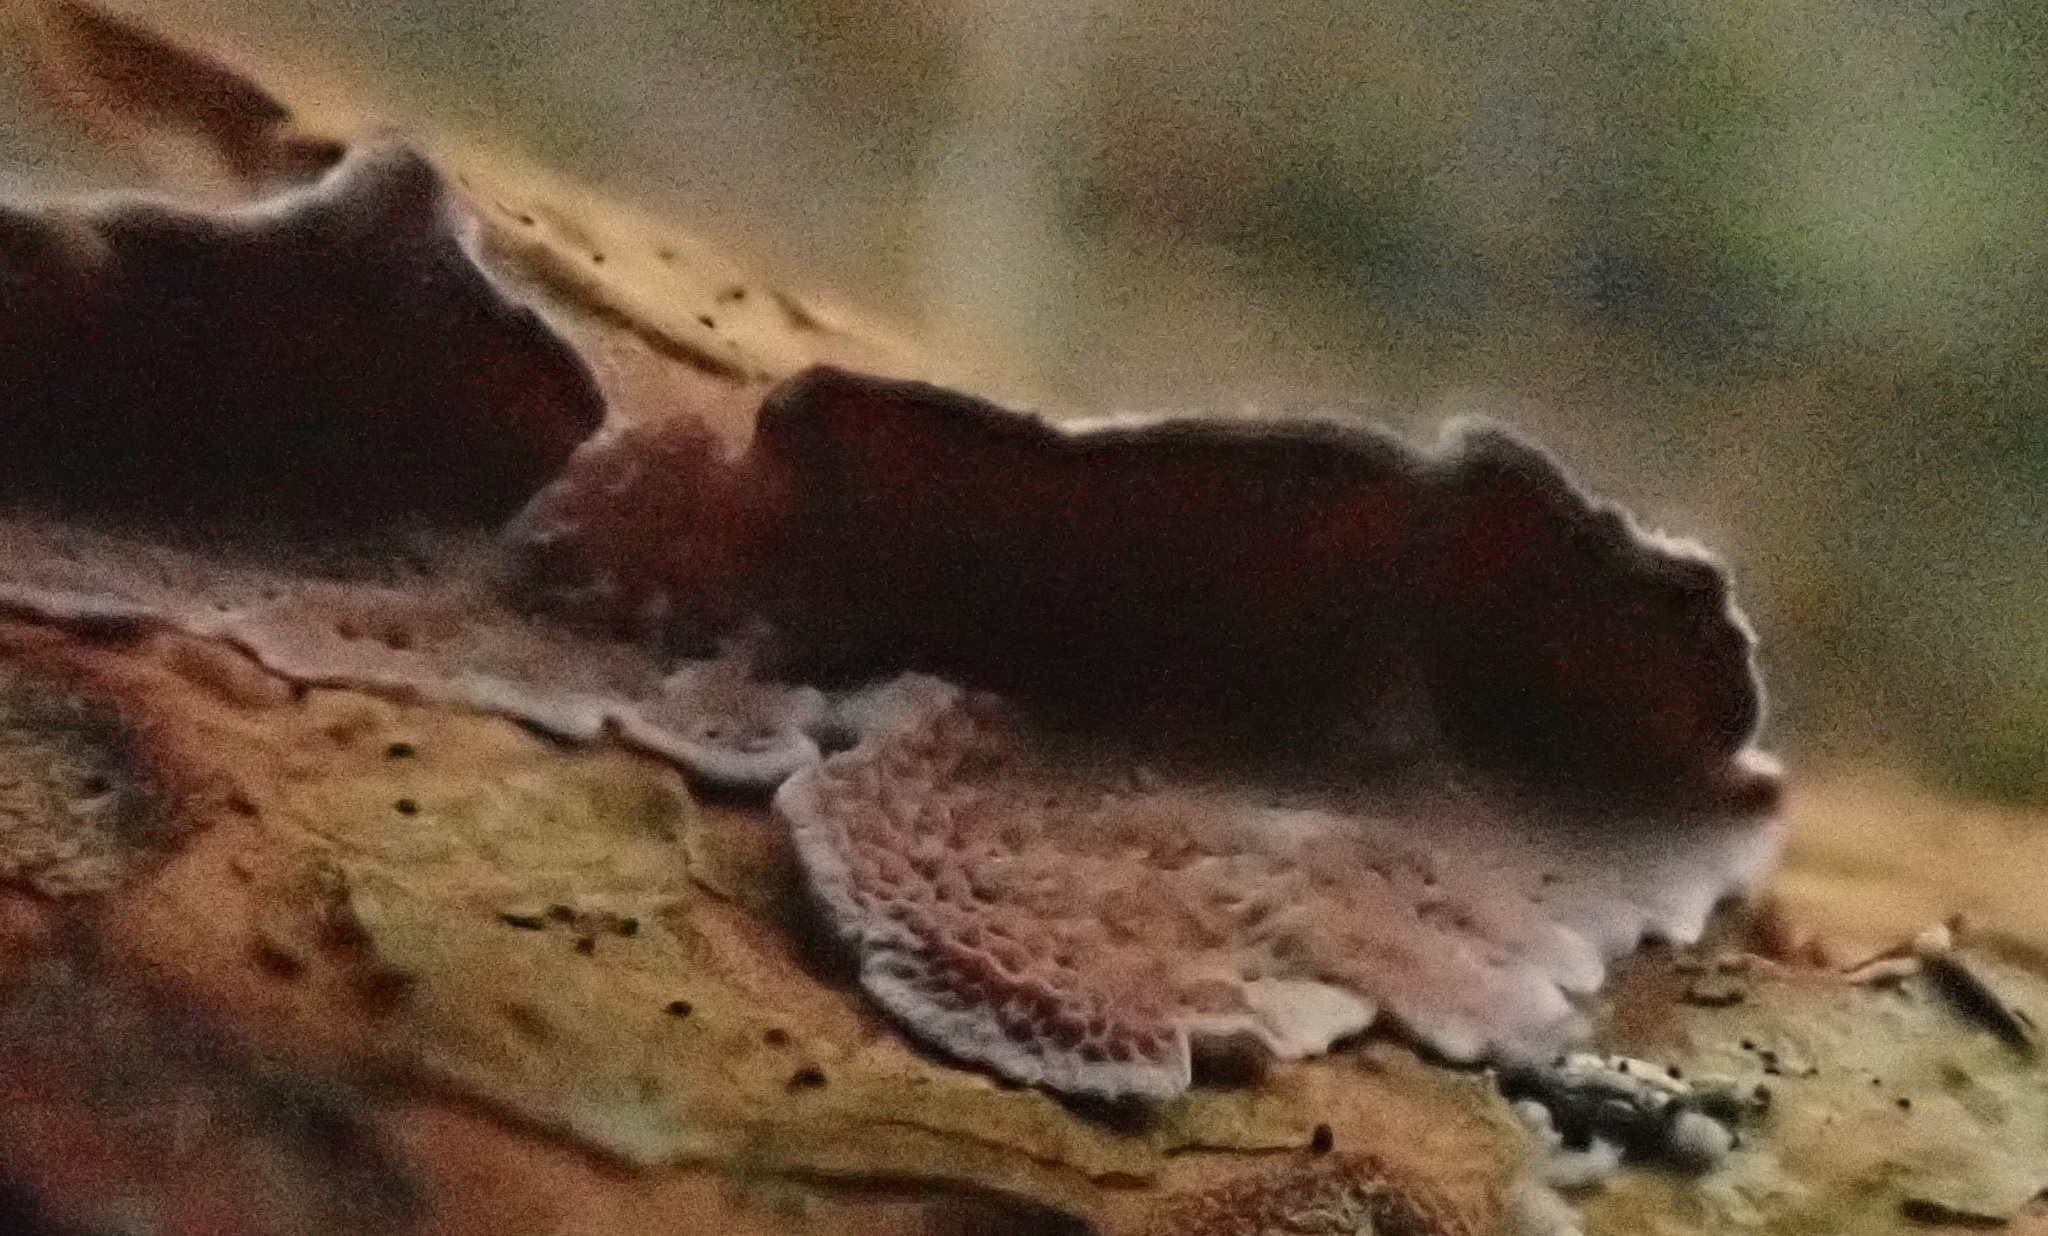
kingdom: Fungi
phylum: Basidiomycota
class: Agaricomycetes
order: Hymenochaetales
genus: Trichaptum
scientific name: Trichaptum abietinum
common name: Purplepore bracket
